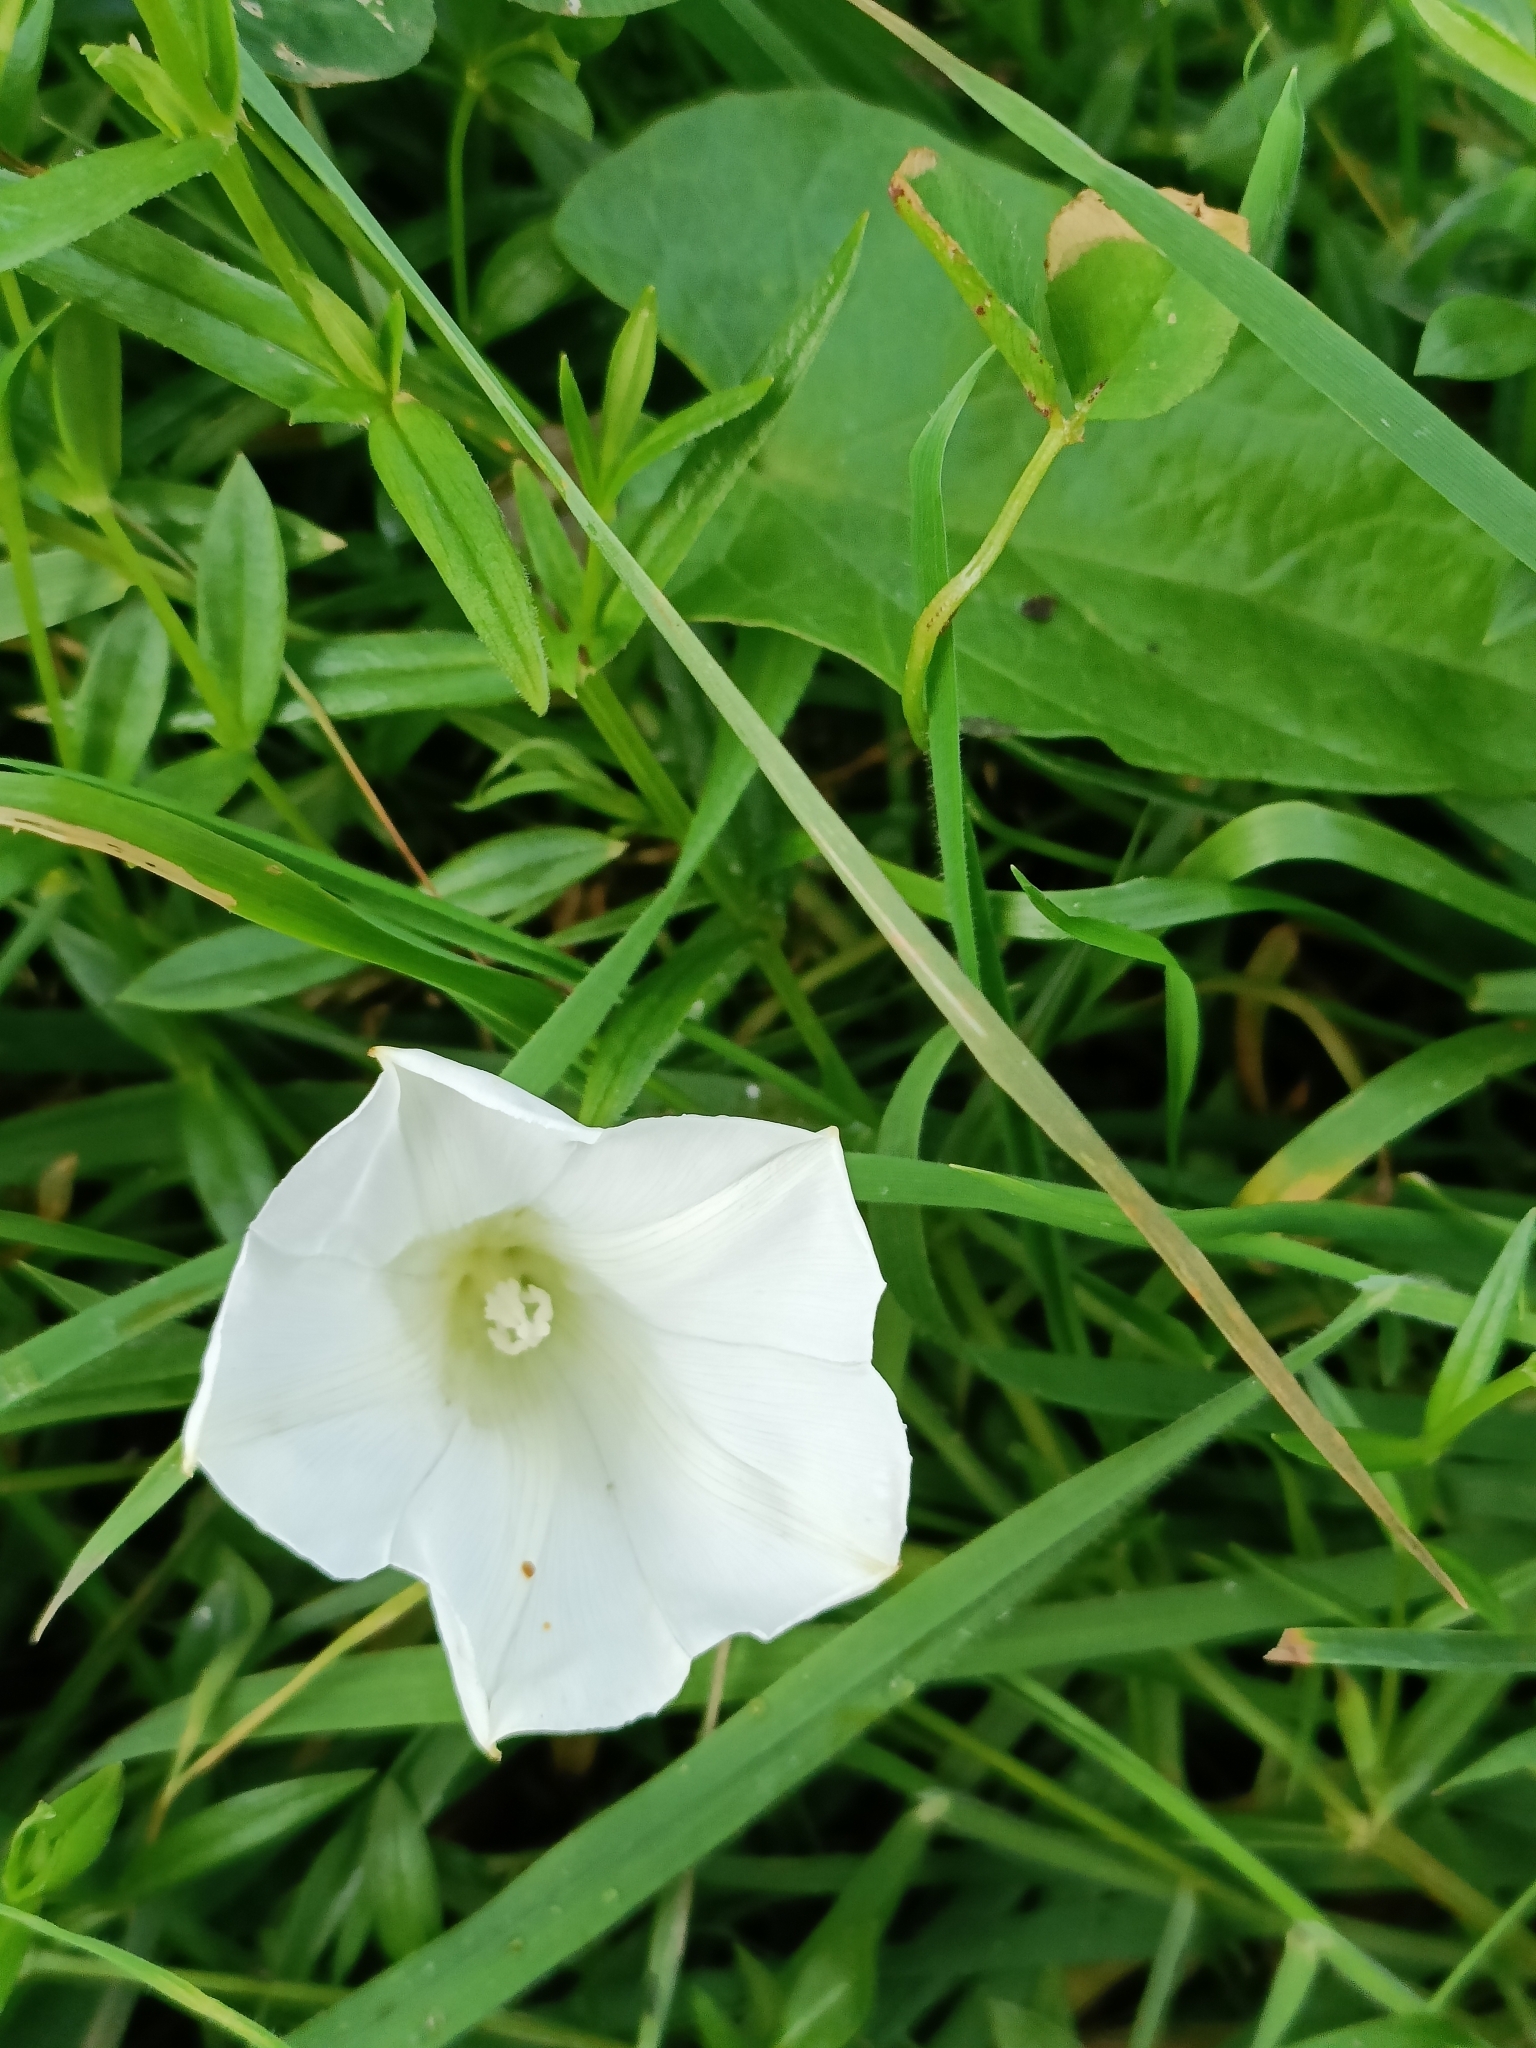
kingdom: Plantae
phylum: Tracheophyta
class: Magnoliopsida
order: Solanales
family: Convolvulaceae
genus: Calystegia
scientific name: Calystegia sepium
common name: Hedge bindweed
